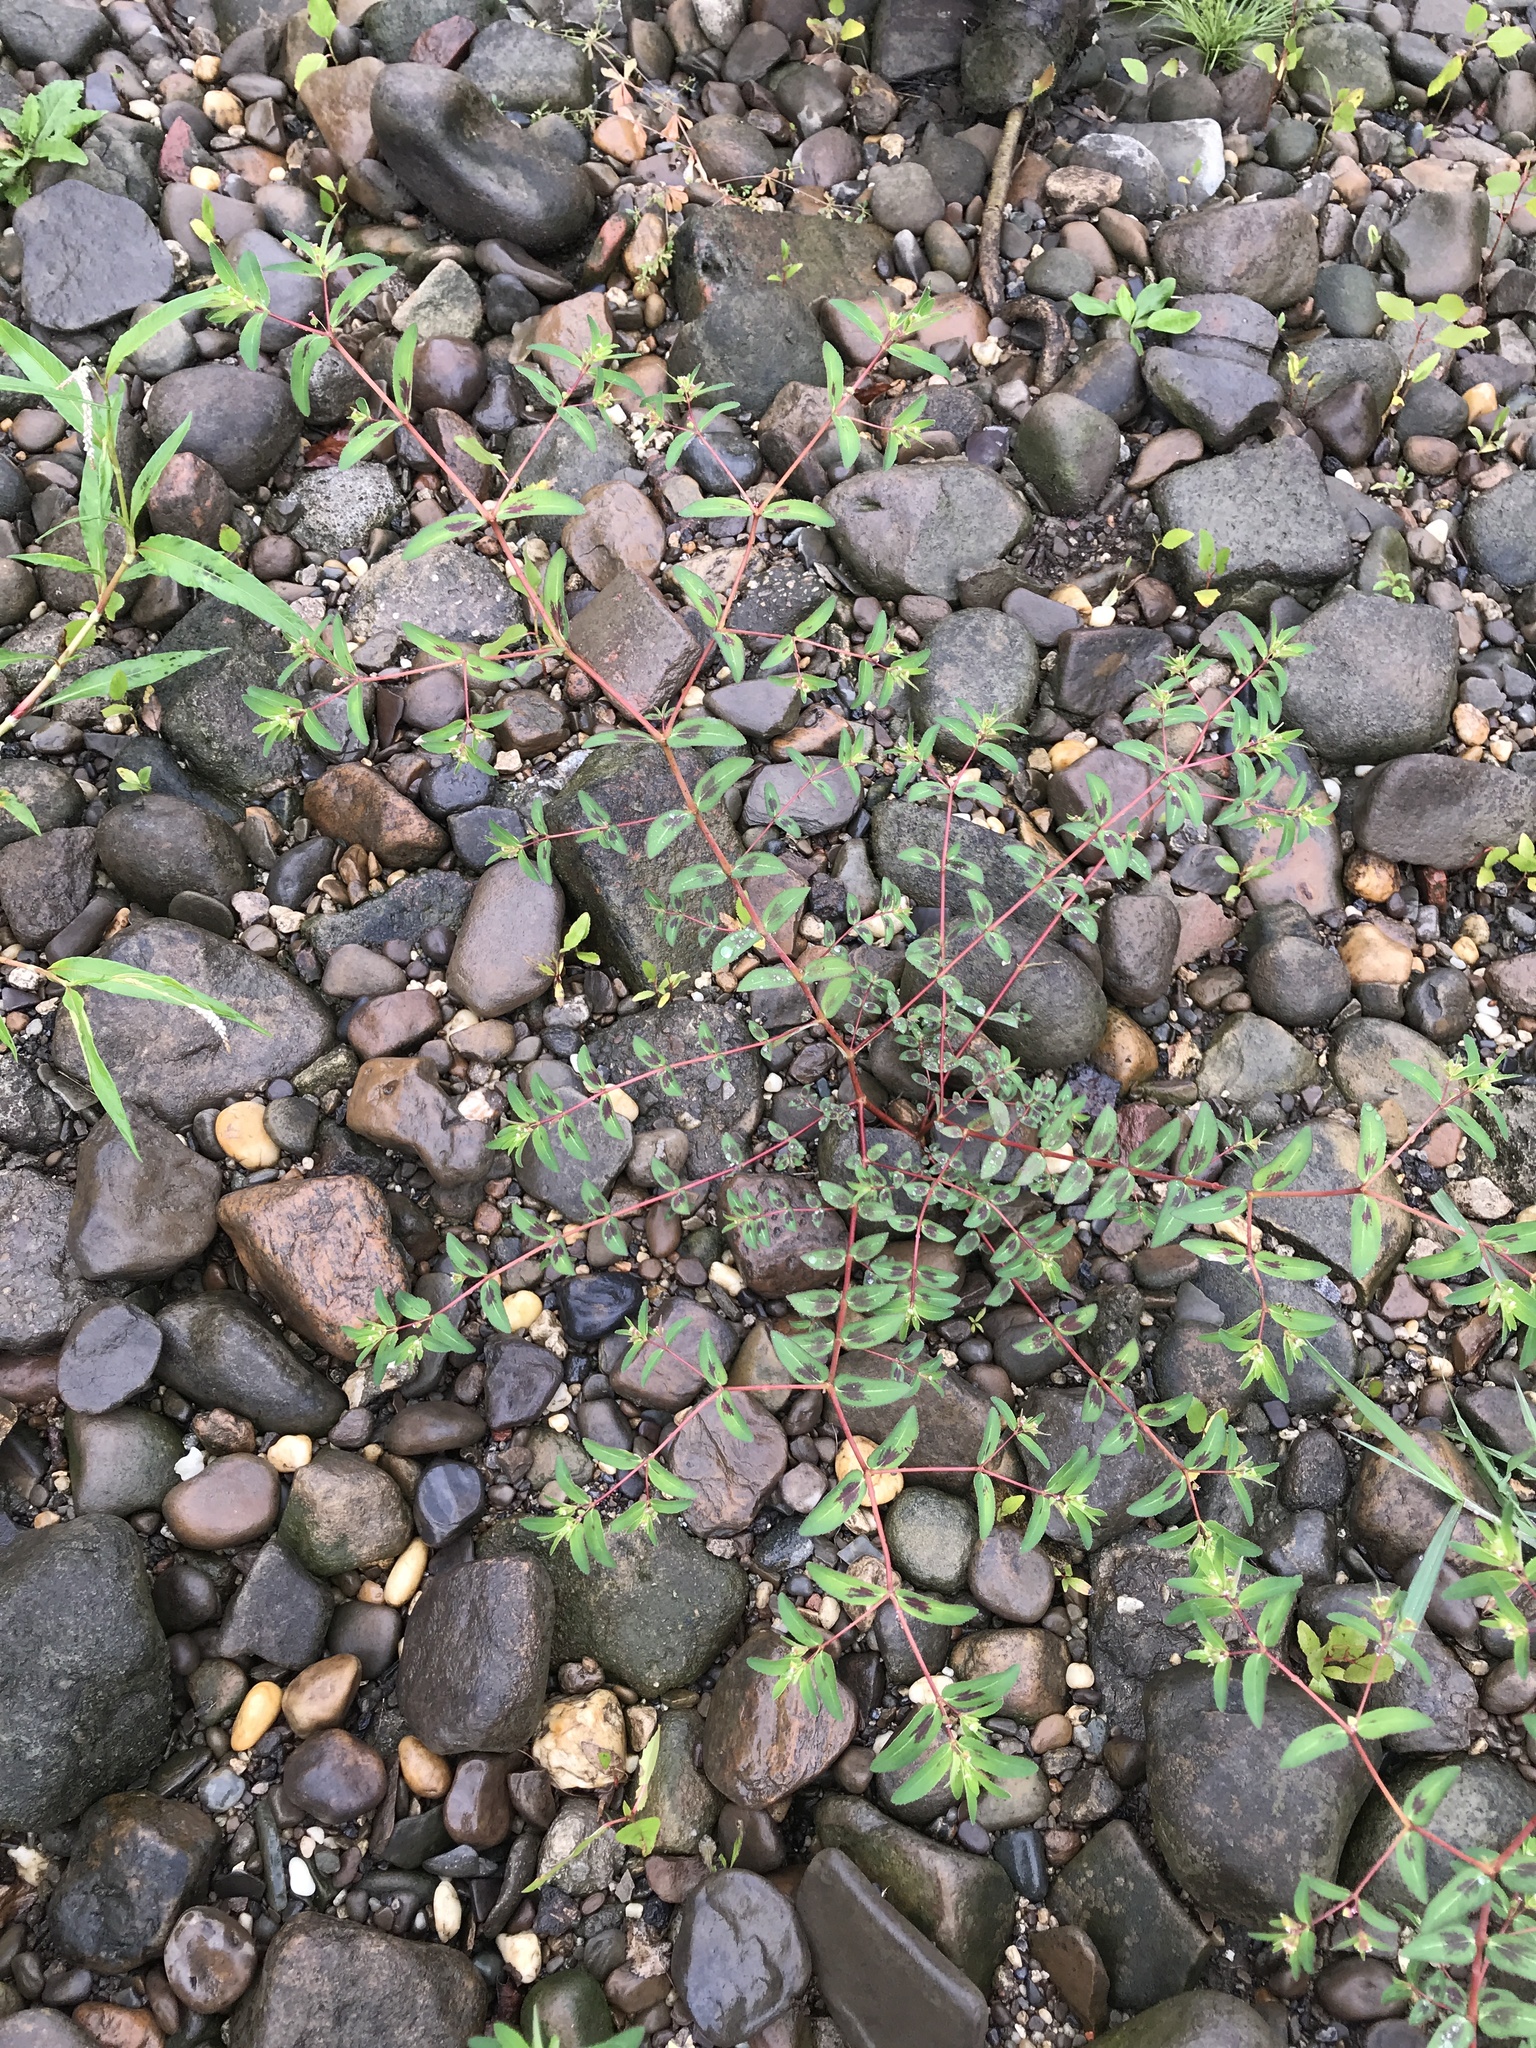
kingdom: Plantae
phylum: Tracheophyta
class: Magnoliopsida
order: Malpighiales
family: Euphorbiaceae
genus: Euphorbia
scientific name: Euphorbia nutans
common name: Eyebane
